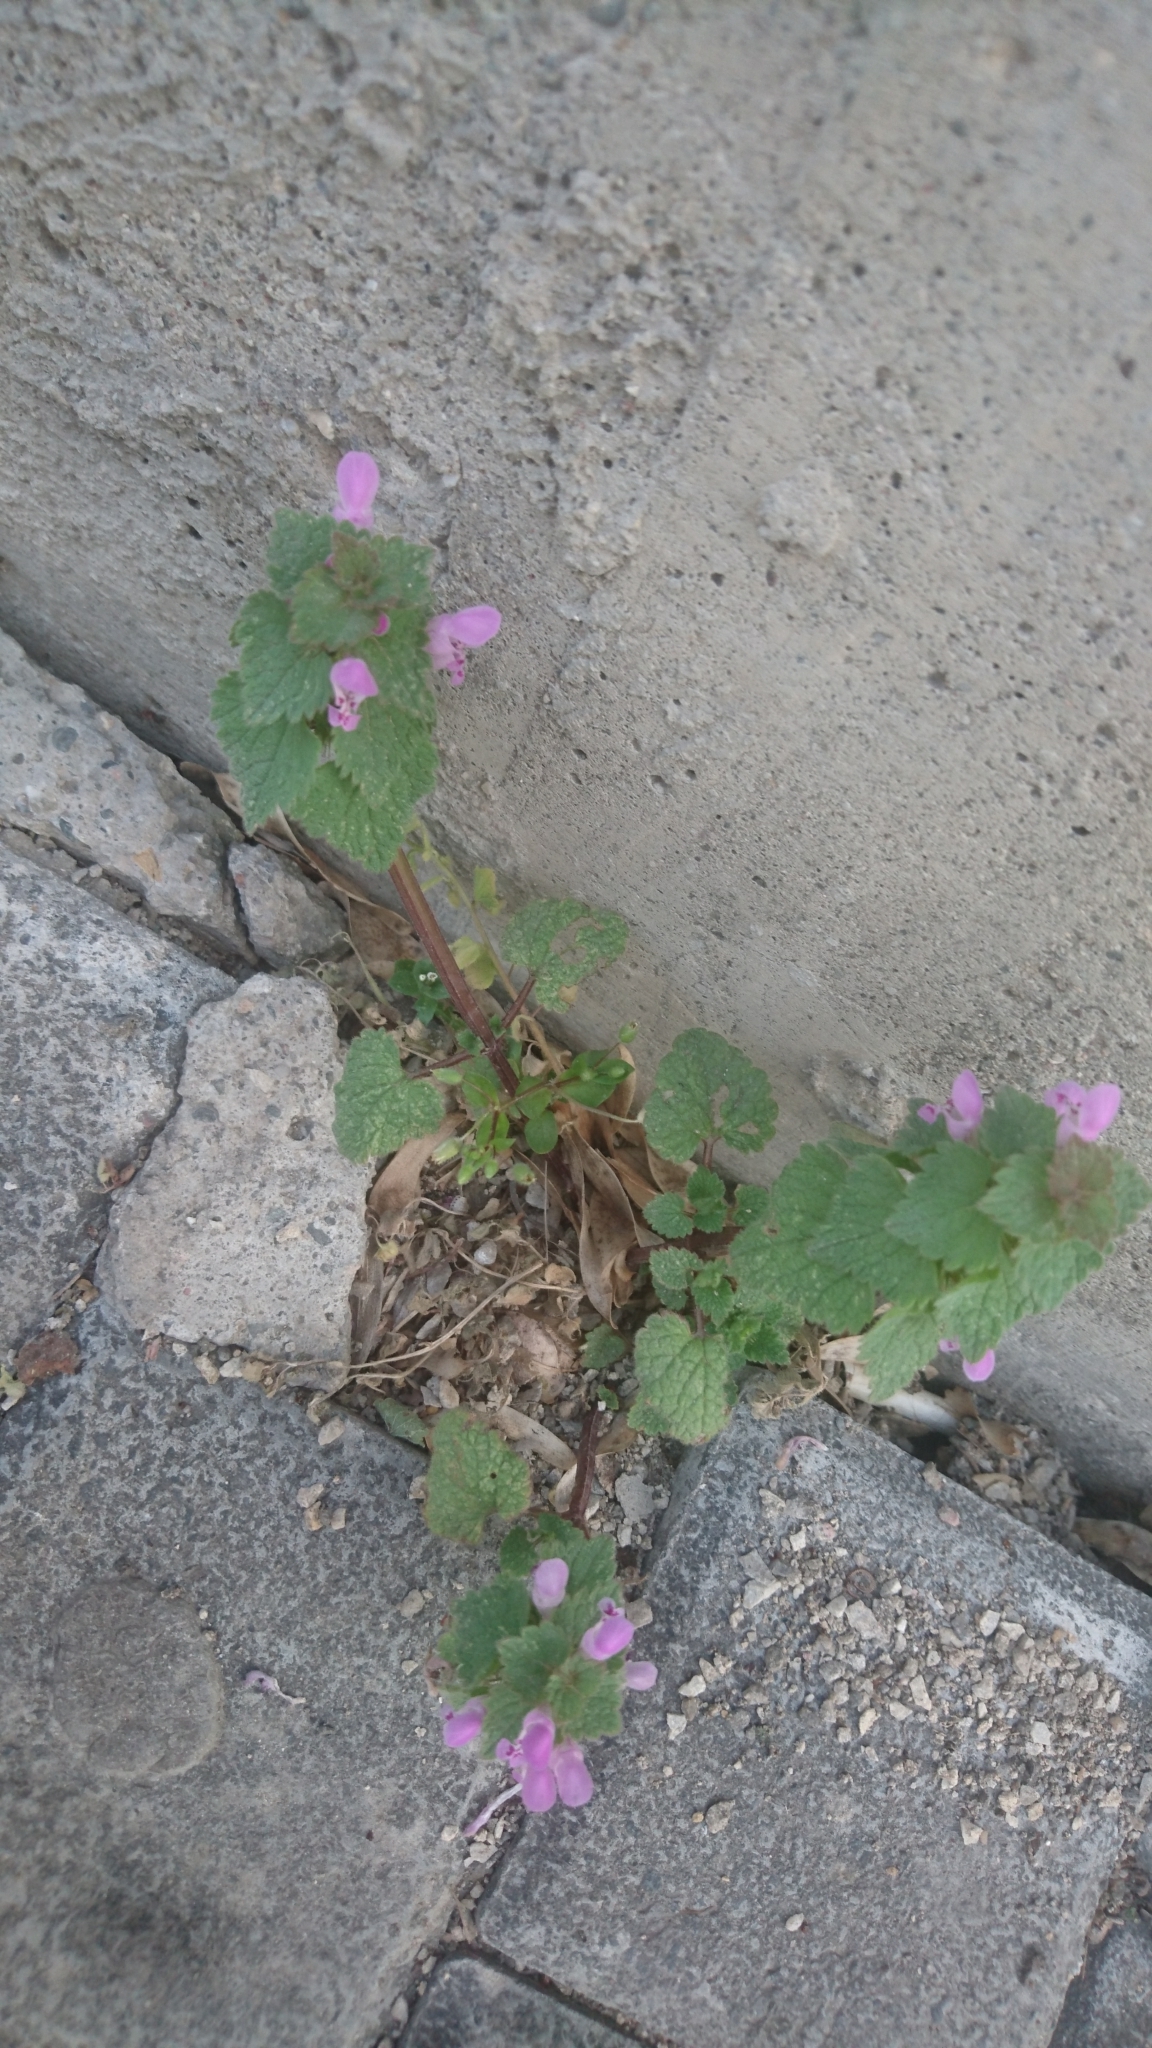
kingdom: Plantae
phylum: Tracheophyta
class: Magnoliopsida
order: Lamiales
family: Lamiaceae
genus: Lamium
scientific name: Lamium purpureum
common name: Red dead-nettle
